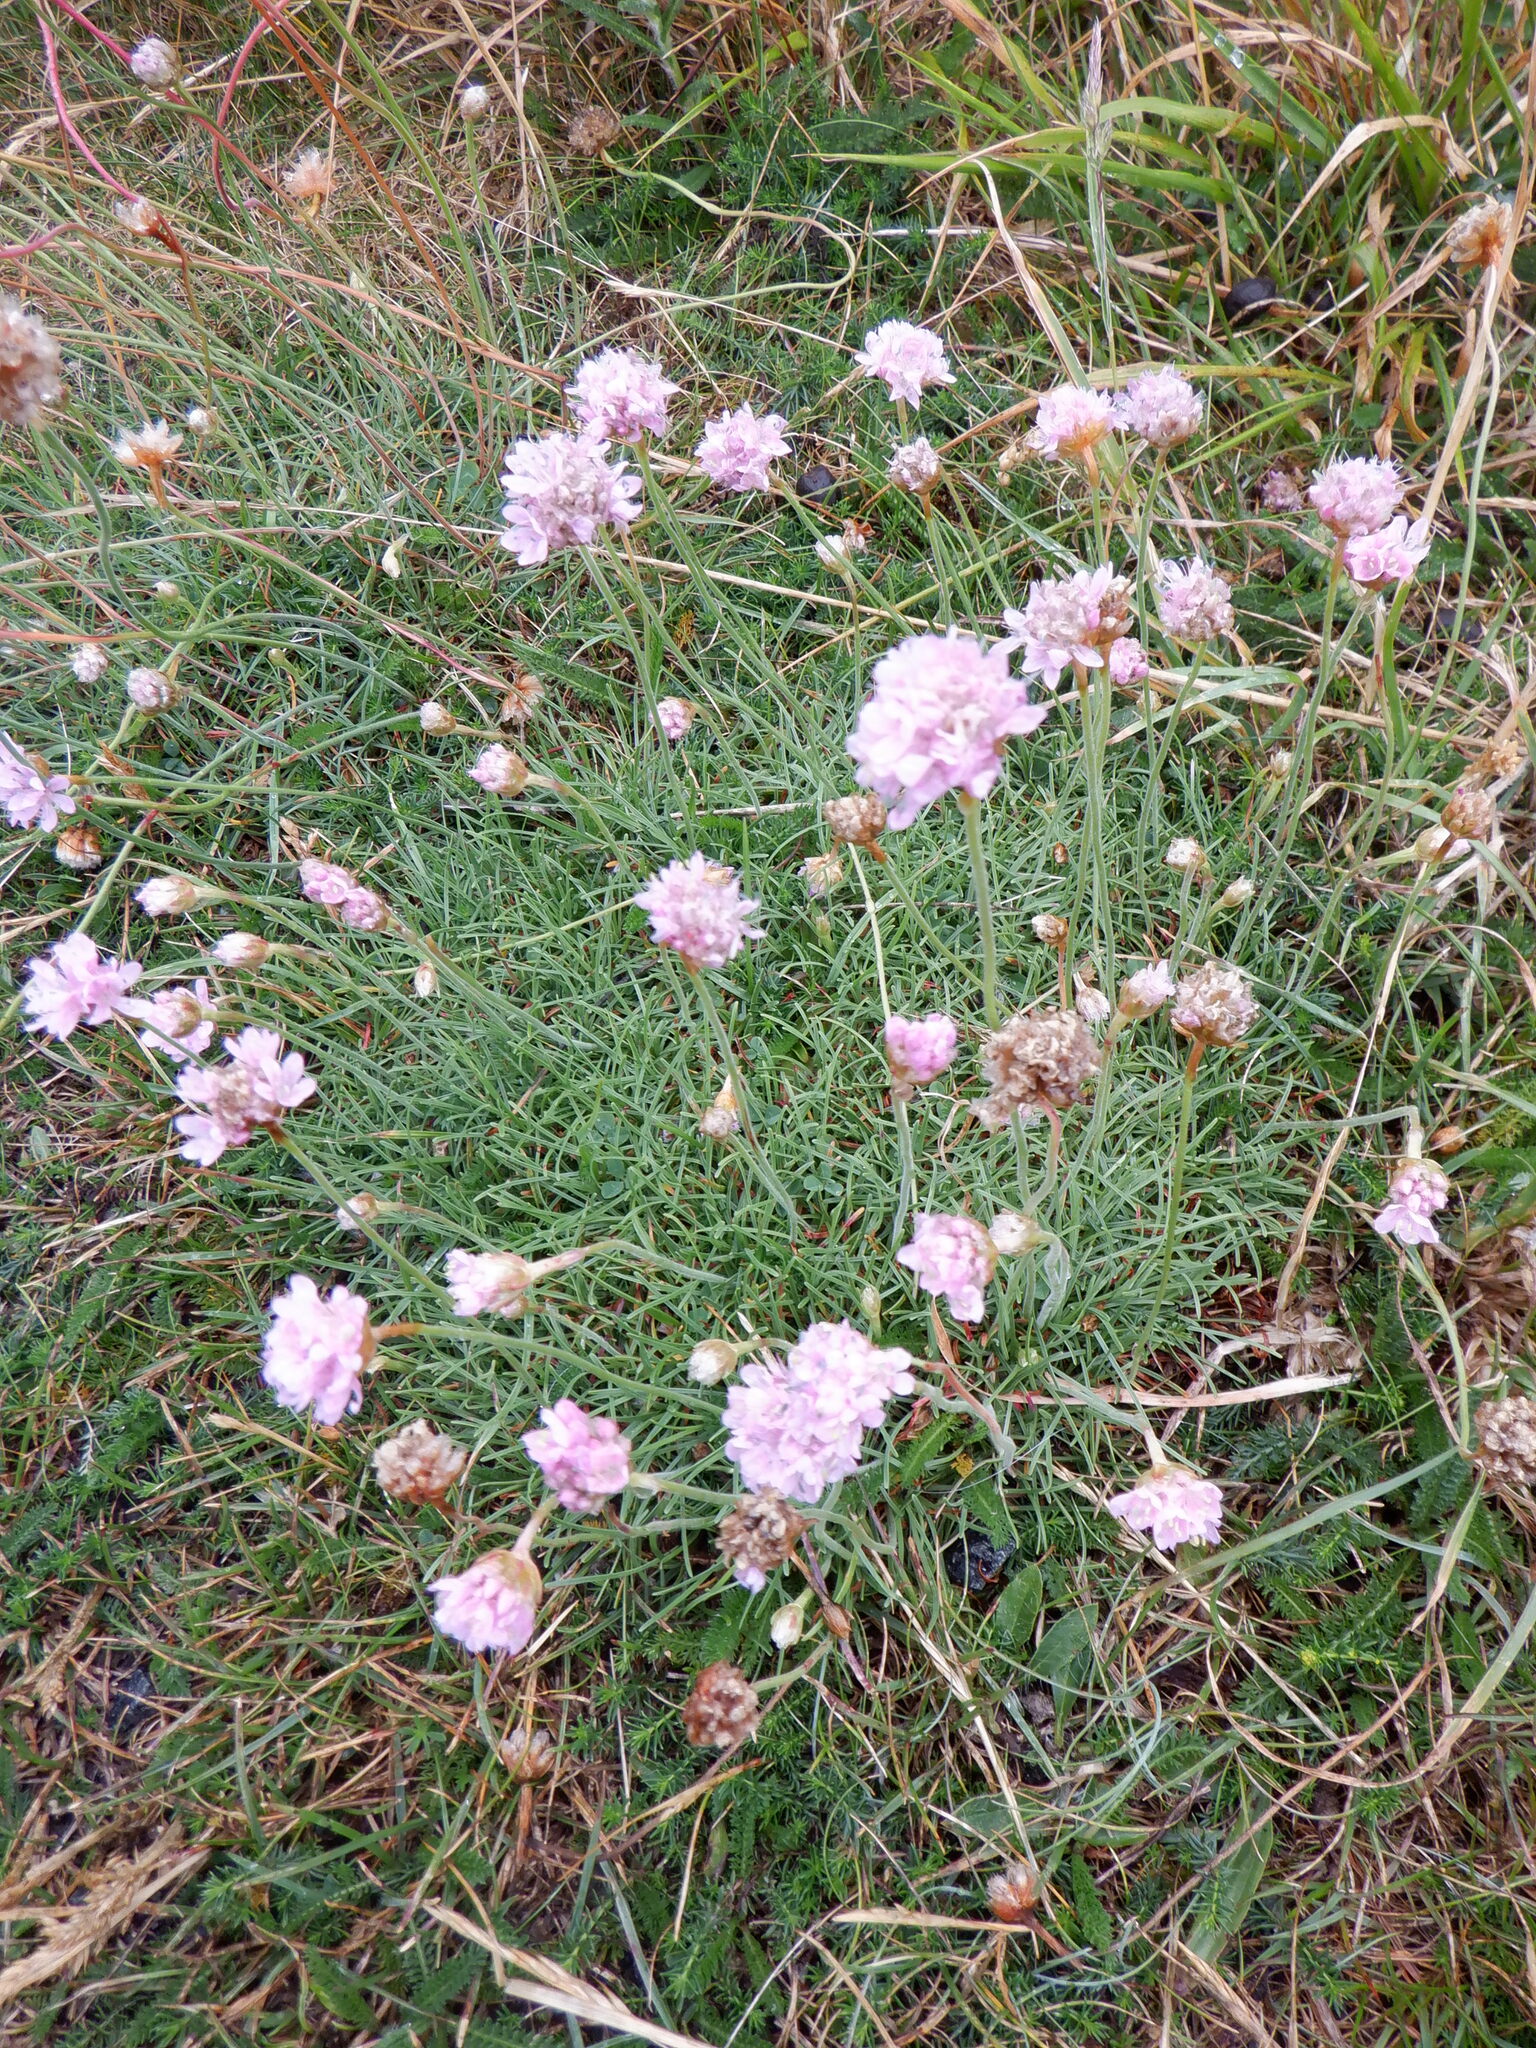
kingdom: Plantae
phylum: Tracheophyta
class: Magnoliopsida
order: Caryophyllales
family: Plumbaginaceae
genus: Armeria
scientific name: Armeria maritima
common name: Thrift
